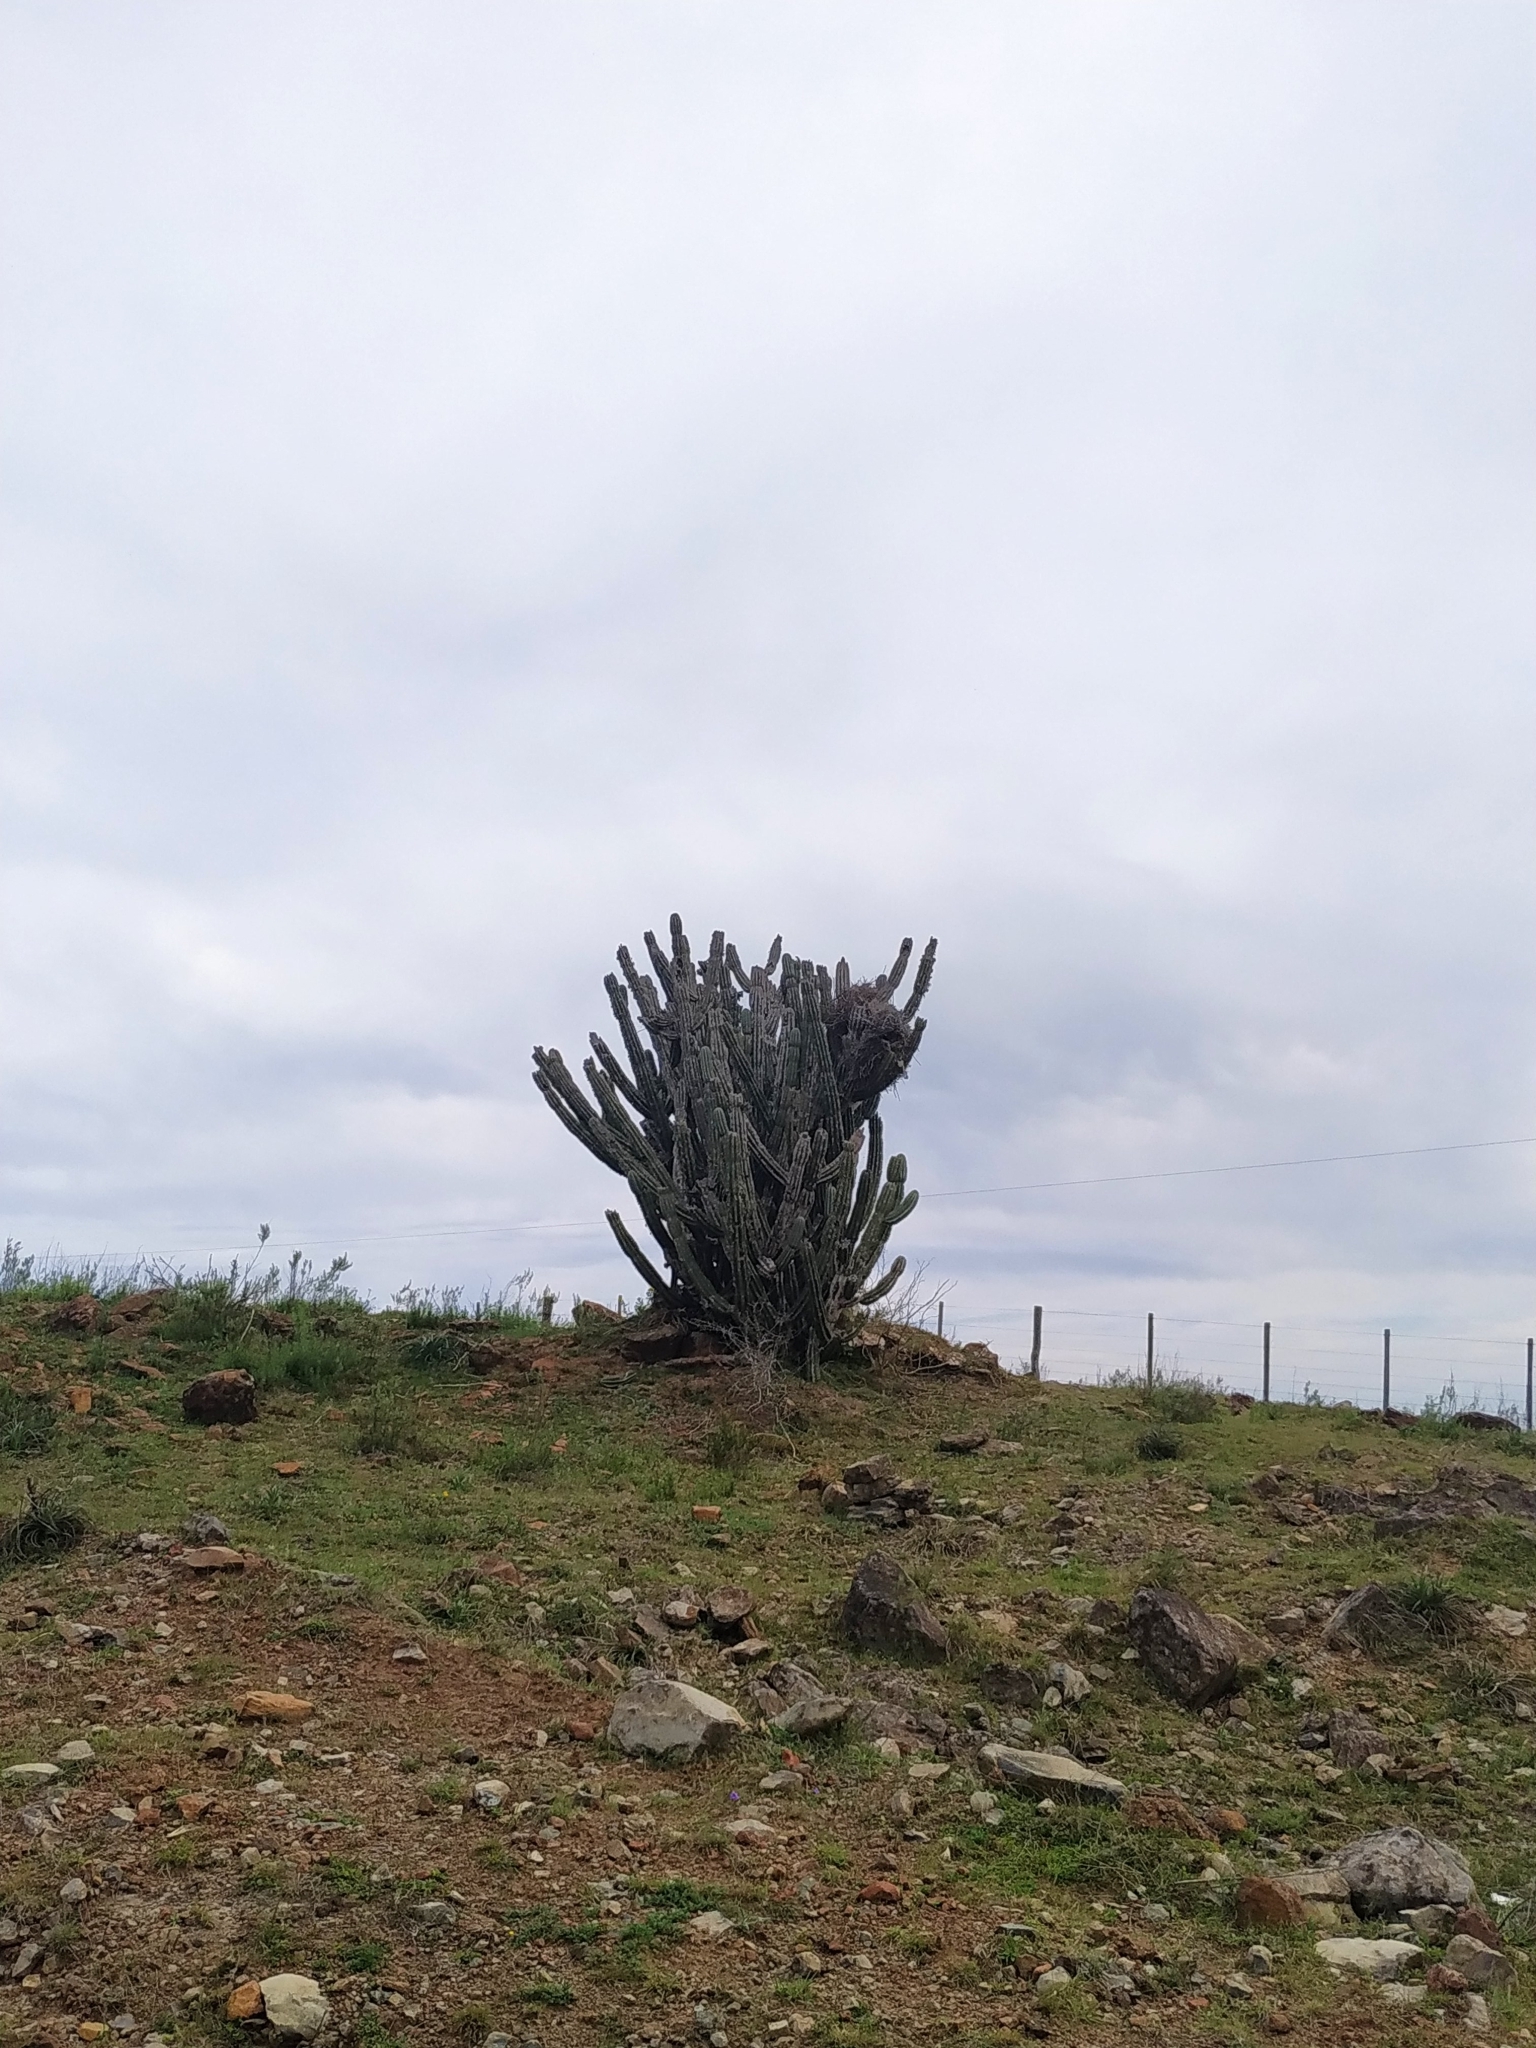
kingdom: Plantae
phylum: Tracheophyta
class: Magnoliopsida
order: Caryophyllales
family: Cactaceae
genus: Cereus
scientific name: Cereus hildmannianus
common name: Hedge cactus
